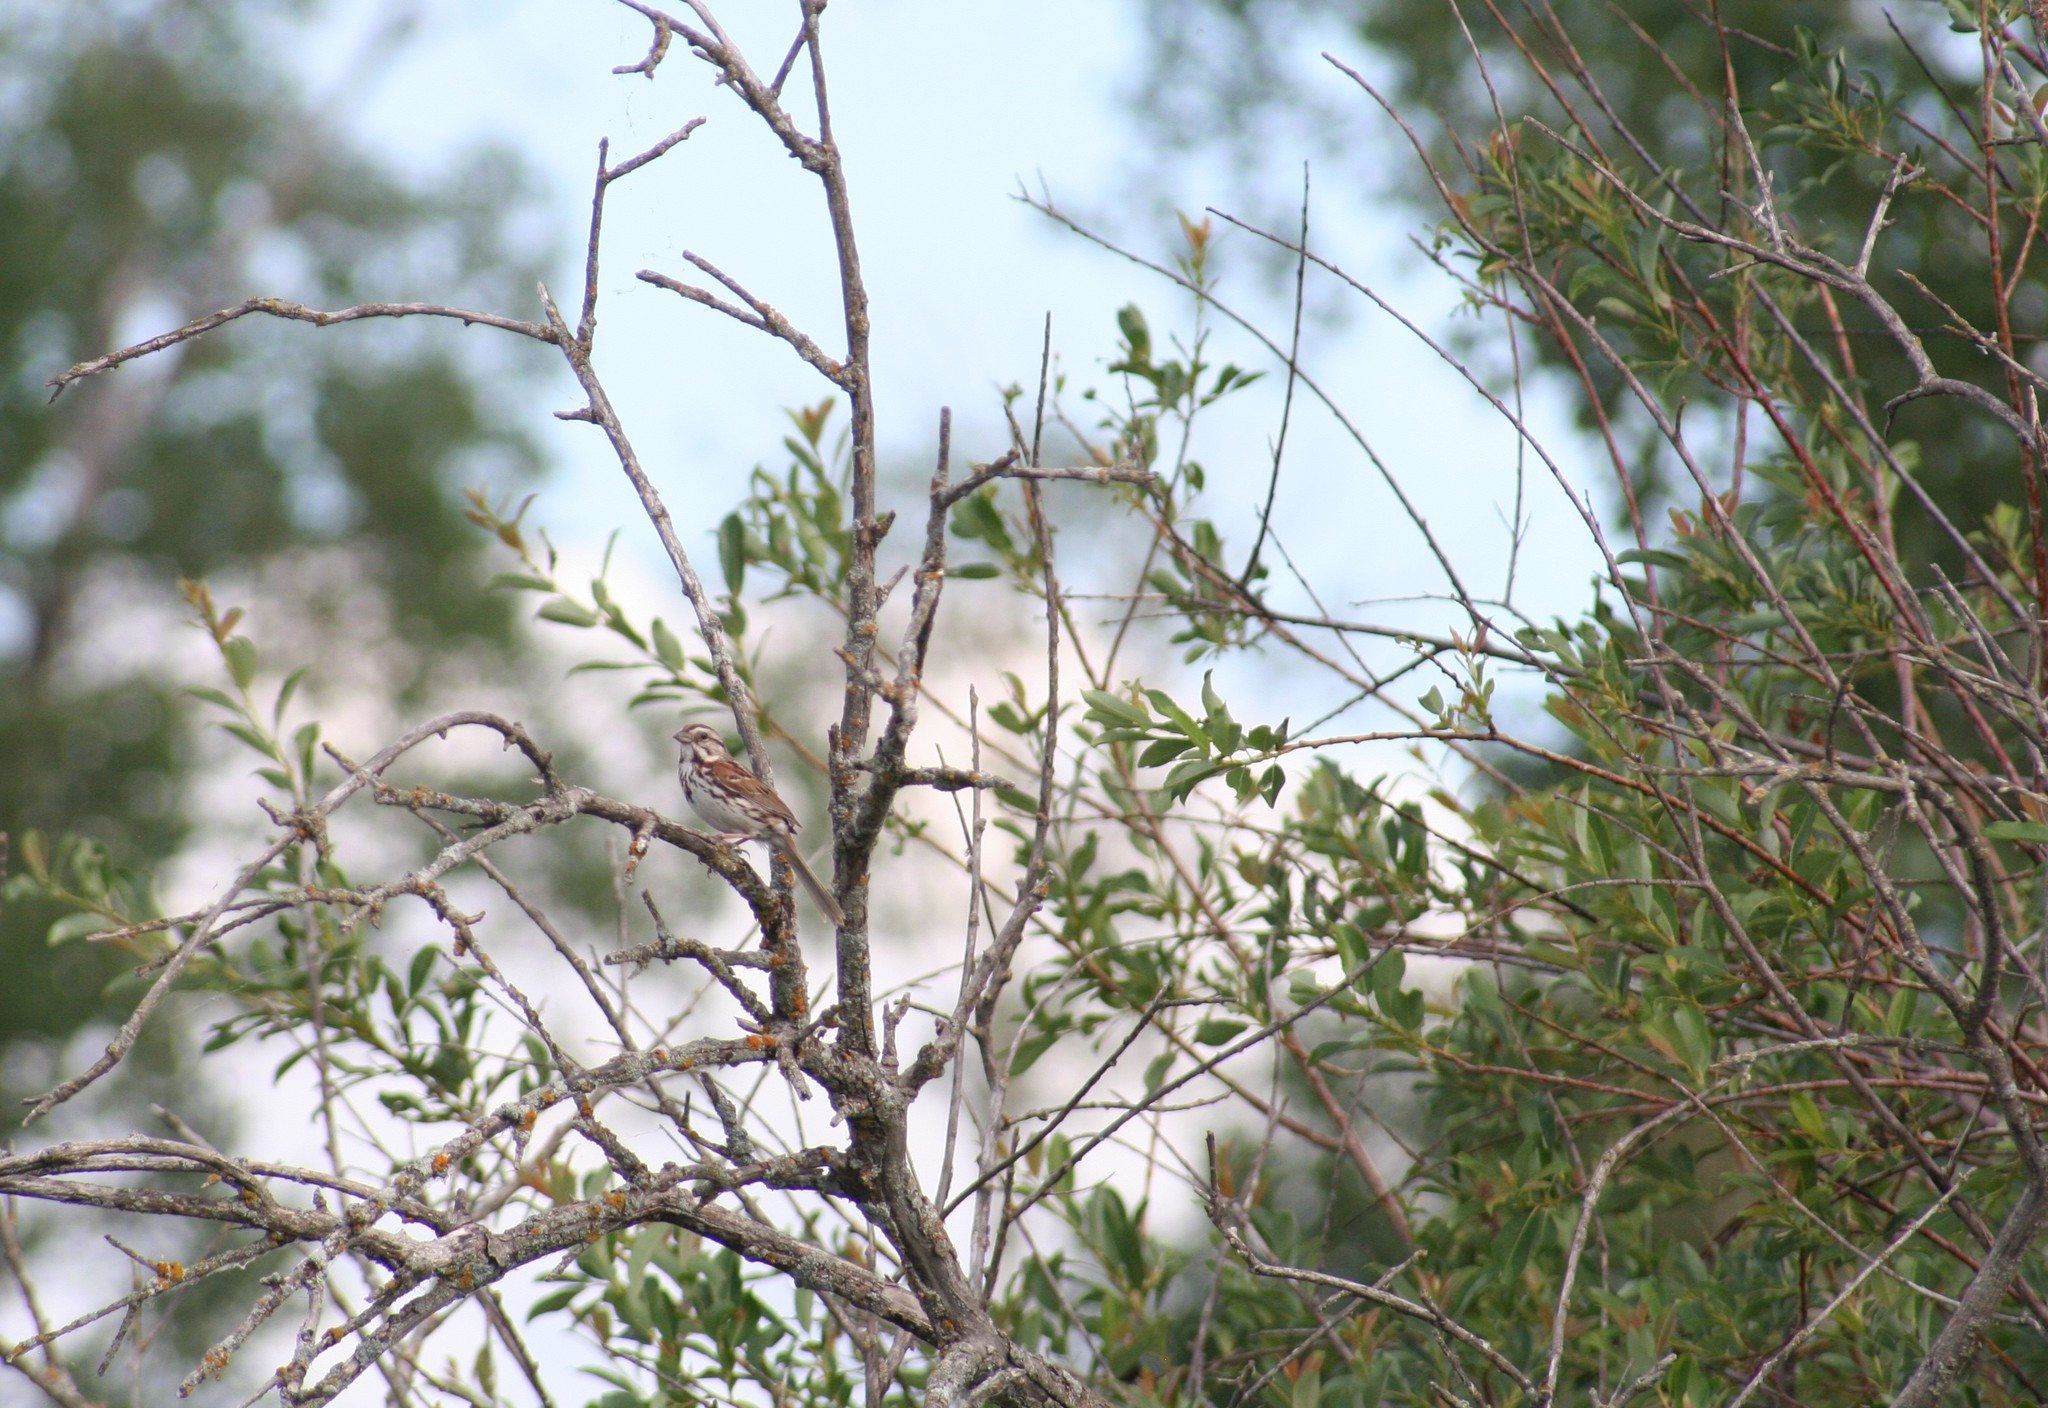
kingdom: Animalia
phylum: Chordata
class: Aves
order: Passeriformes
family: Passerellidae
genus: Melospiza
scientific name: Melospiza melodia
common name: Song sparrow
